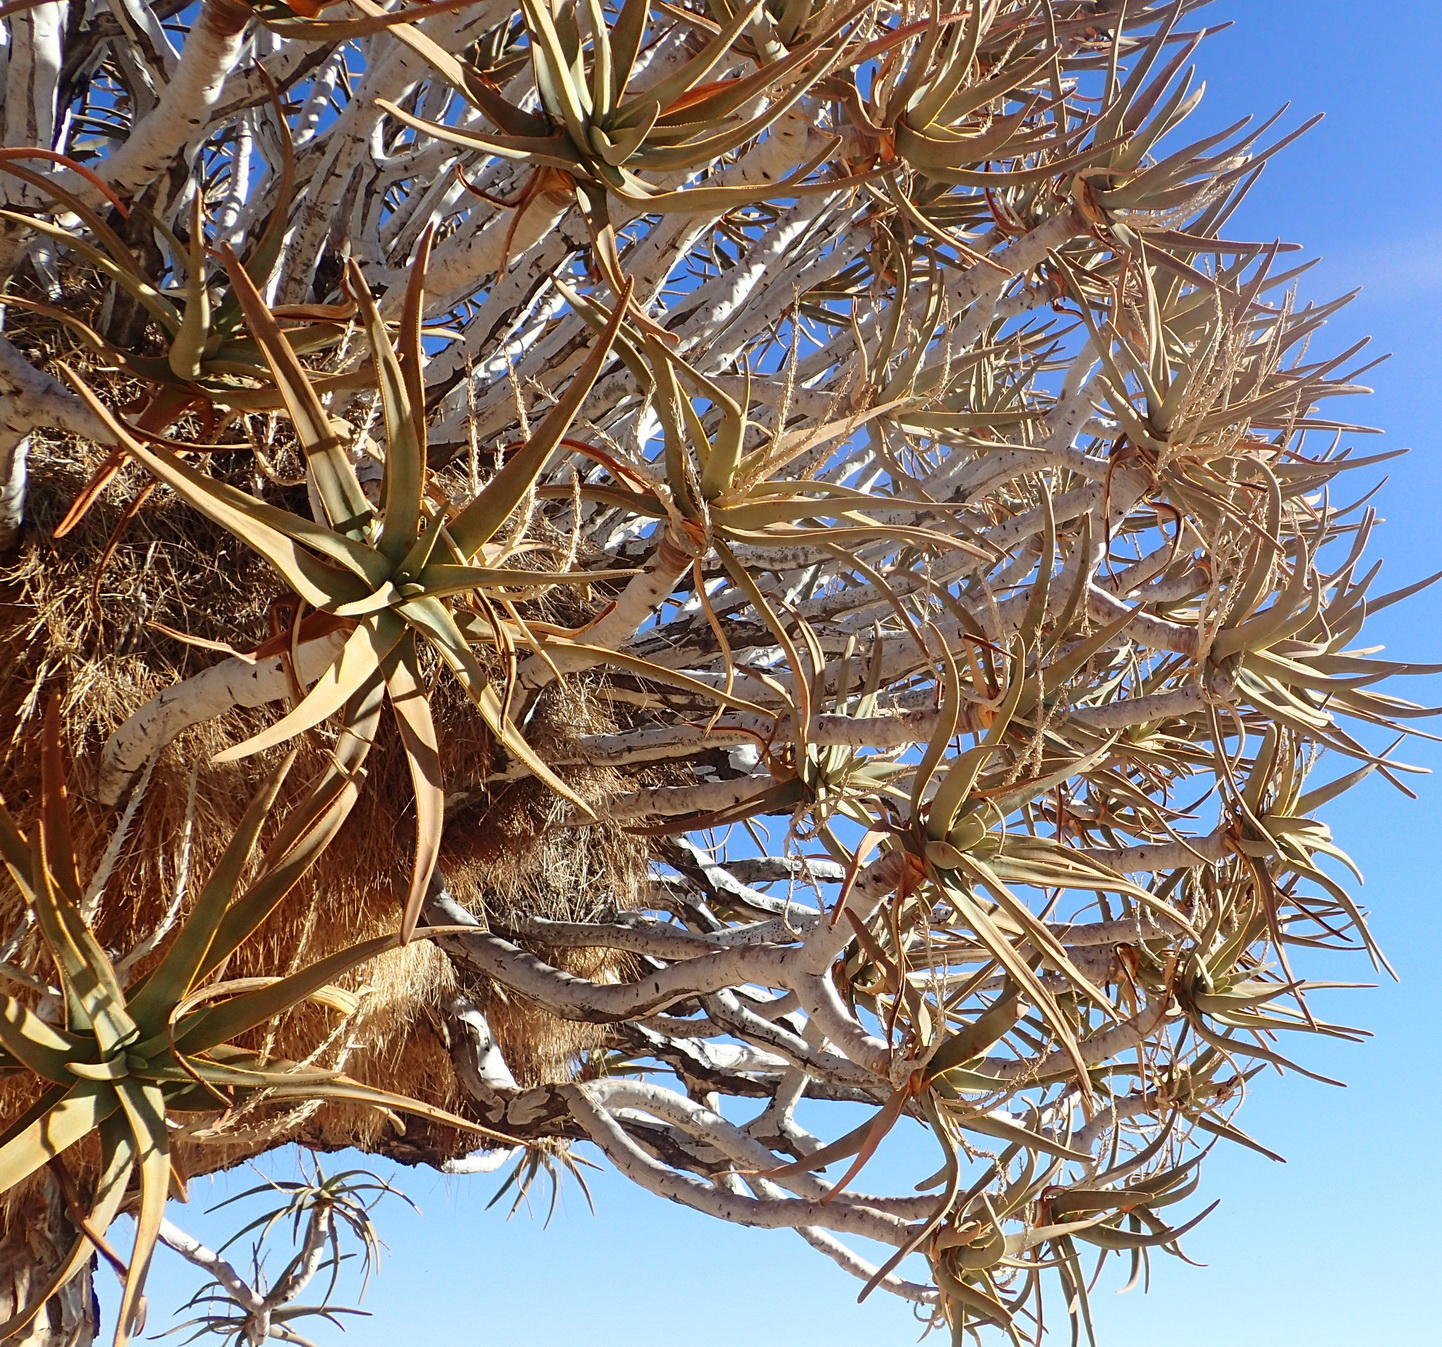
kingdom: Animalia
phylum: Chordata
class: Aves
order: Passeriformes
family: Passeridae
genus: Philetairus
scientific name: Philetairus socius
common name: Sociable weaver
